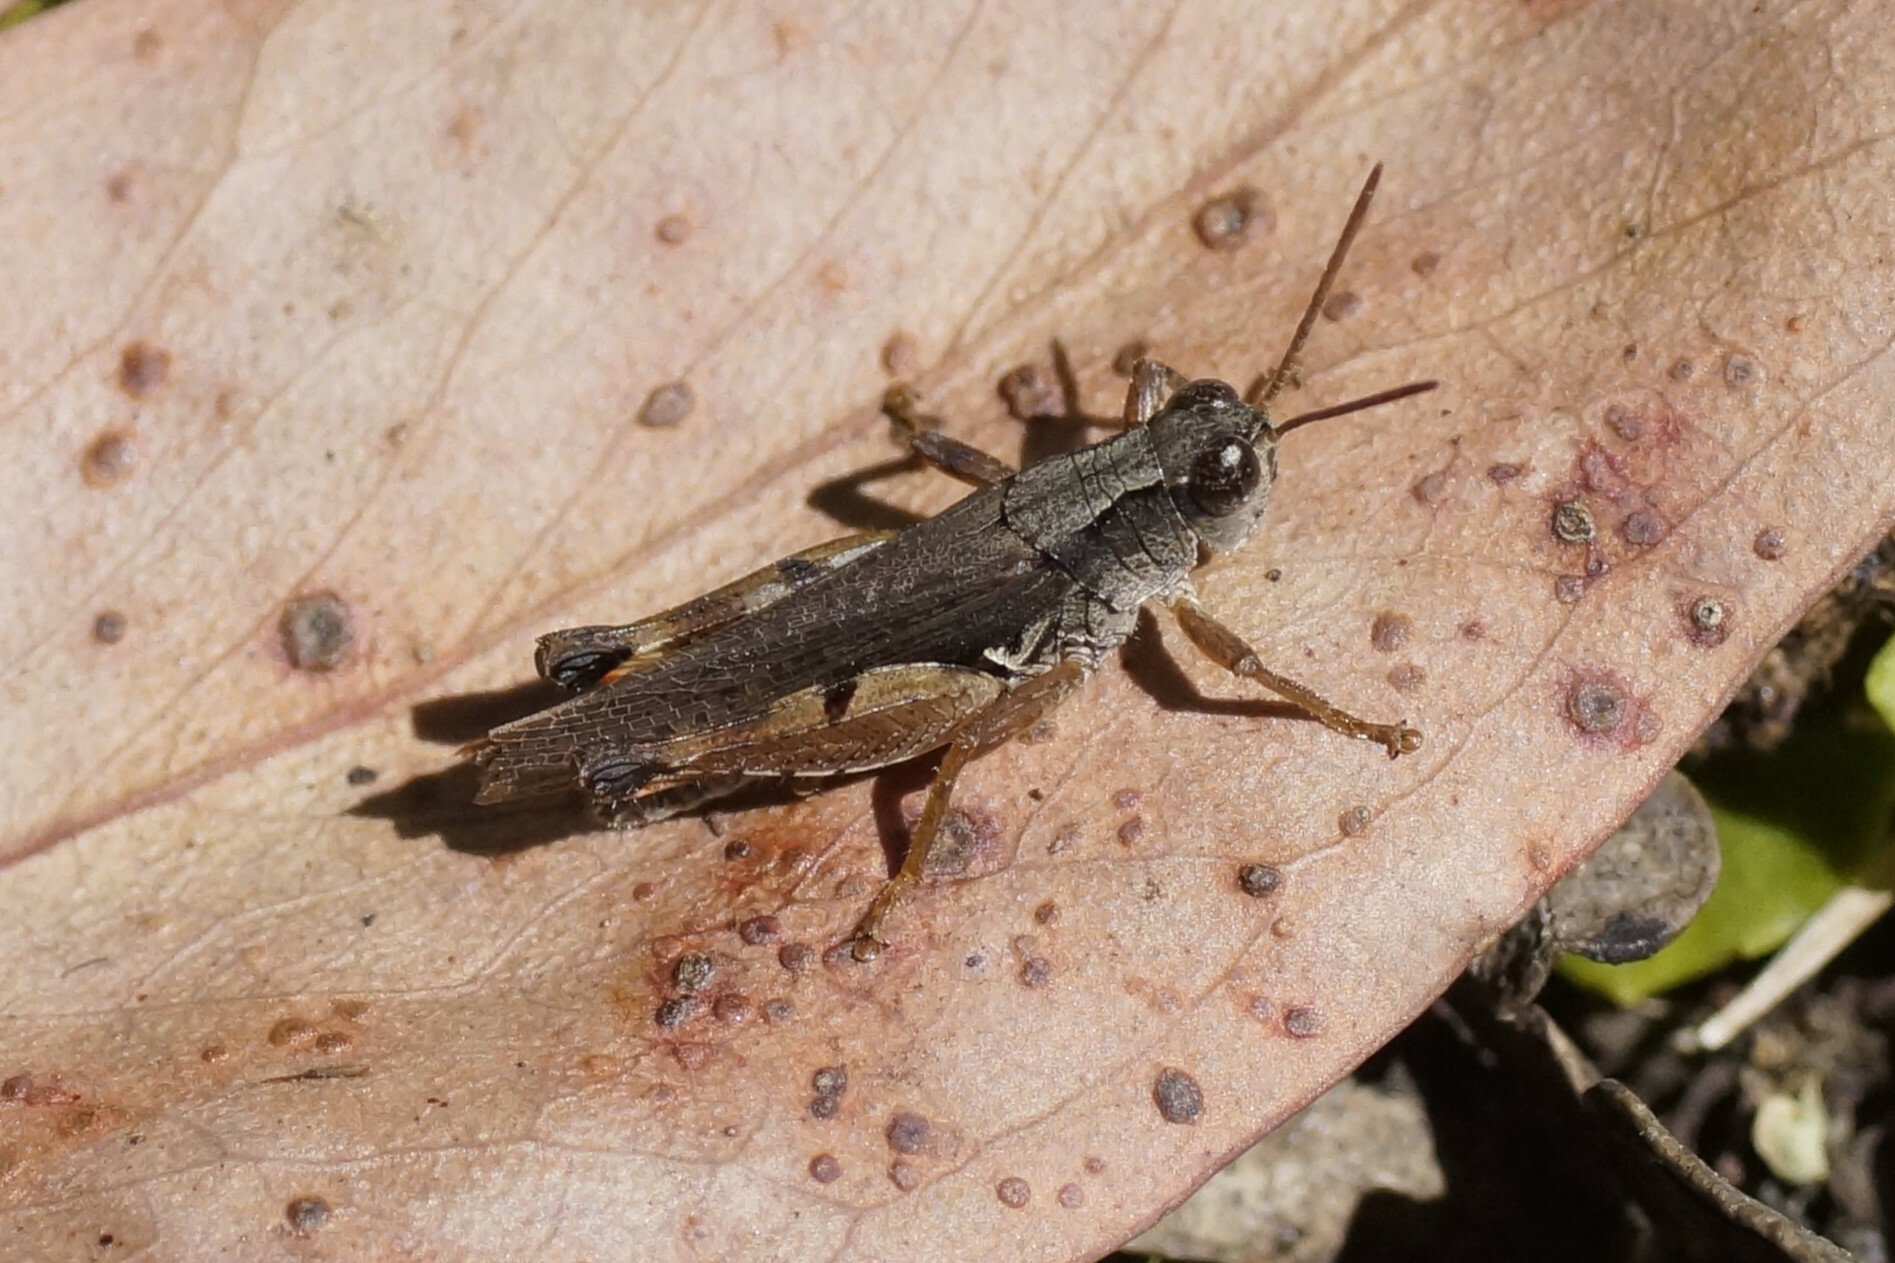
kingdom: Animalia
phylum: Arthropoda
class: Insecta
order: Orthoptera
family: Acrididae
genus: Phaulacridium
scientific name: Phaulacridium vittatum
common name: Wingless grasshopper
